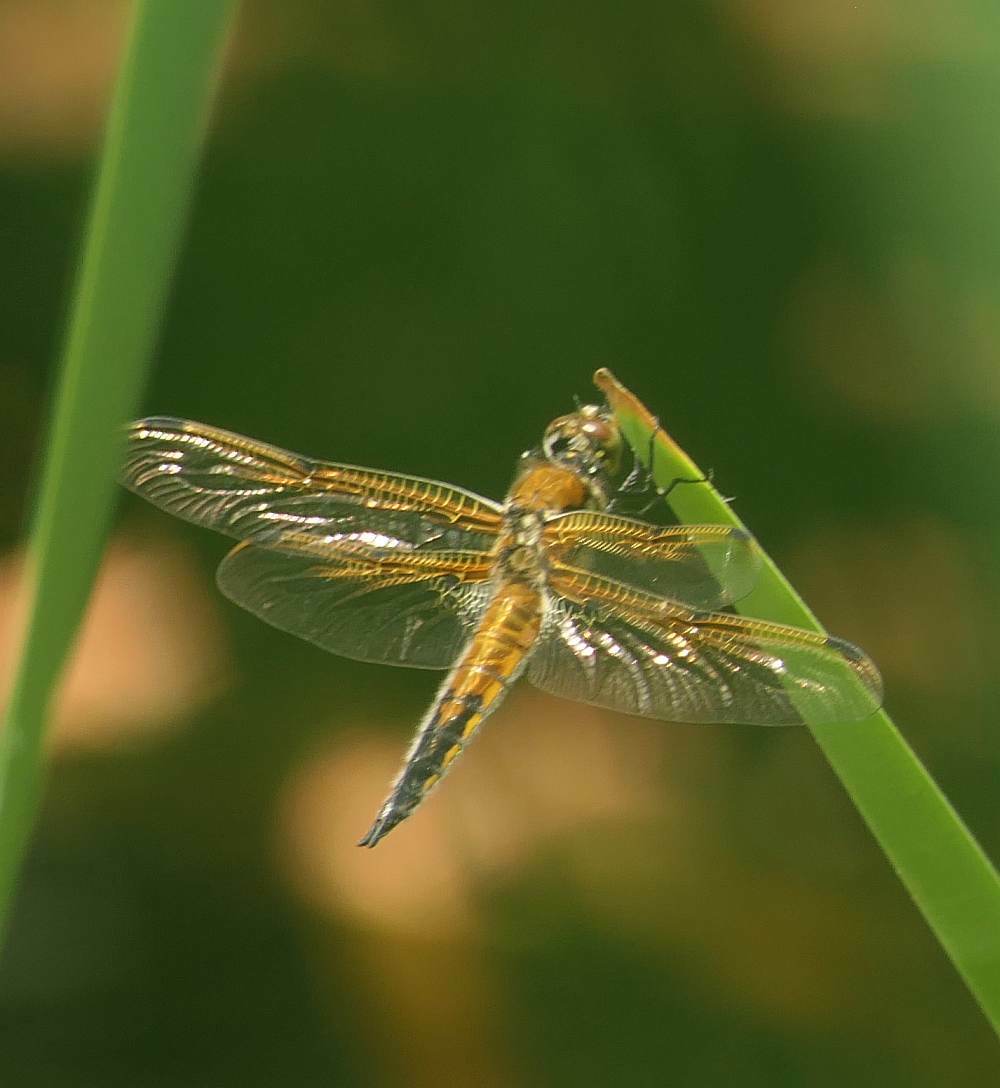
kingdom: Animalia
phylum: Arthropoda
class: Insecta
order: Odonata
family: Libellulidae
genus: Libellula
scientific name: Libellula quadrimaculata
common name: Four-spotted chaser
